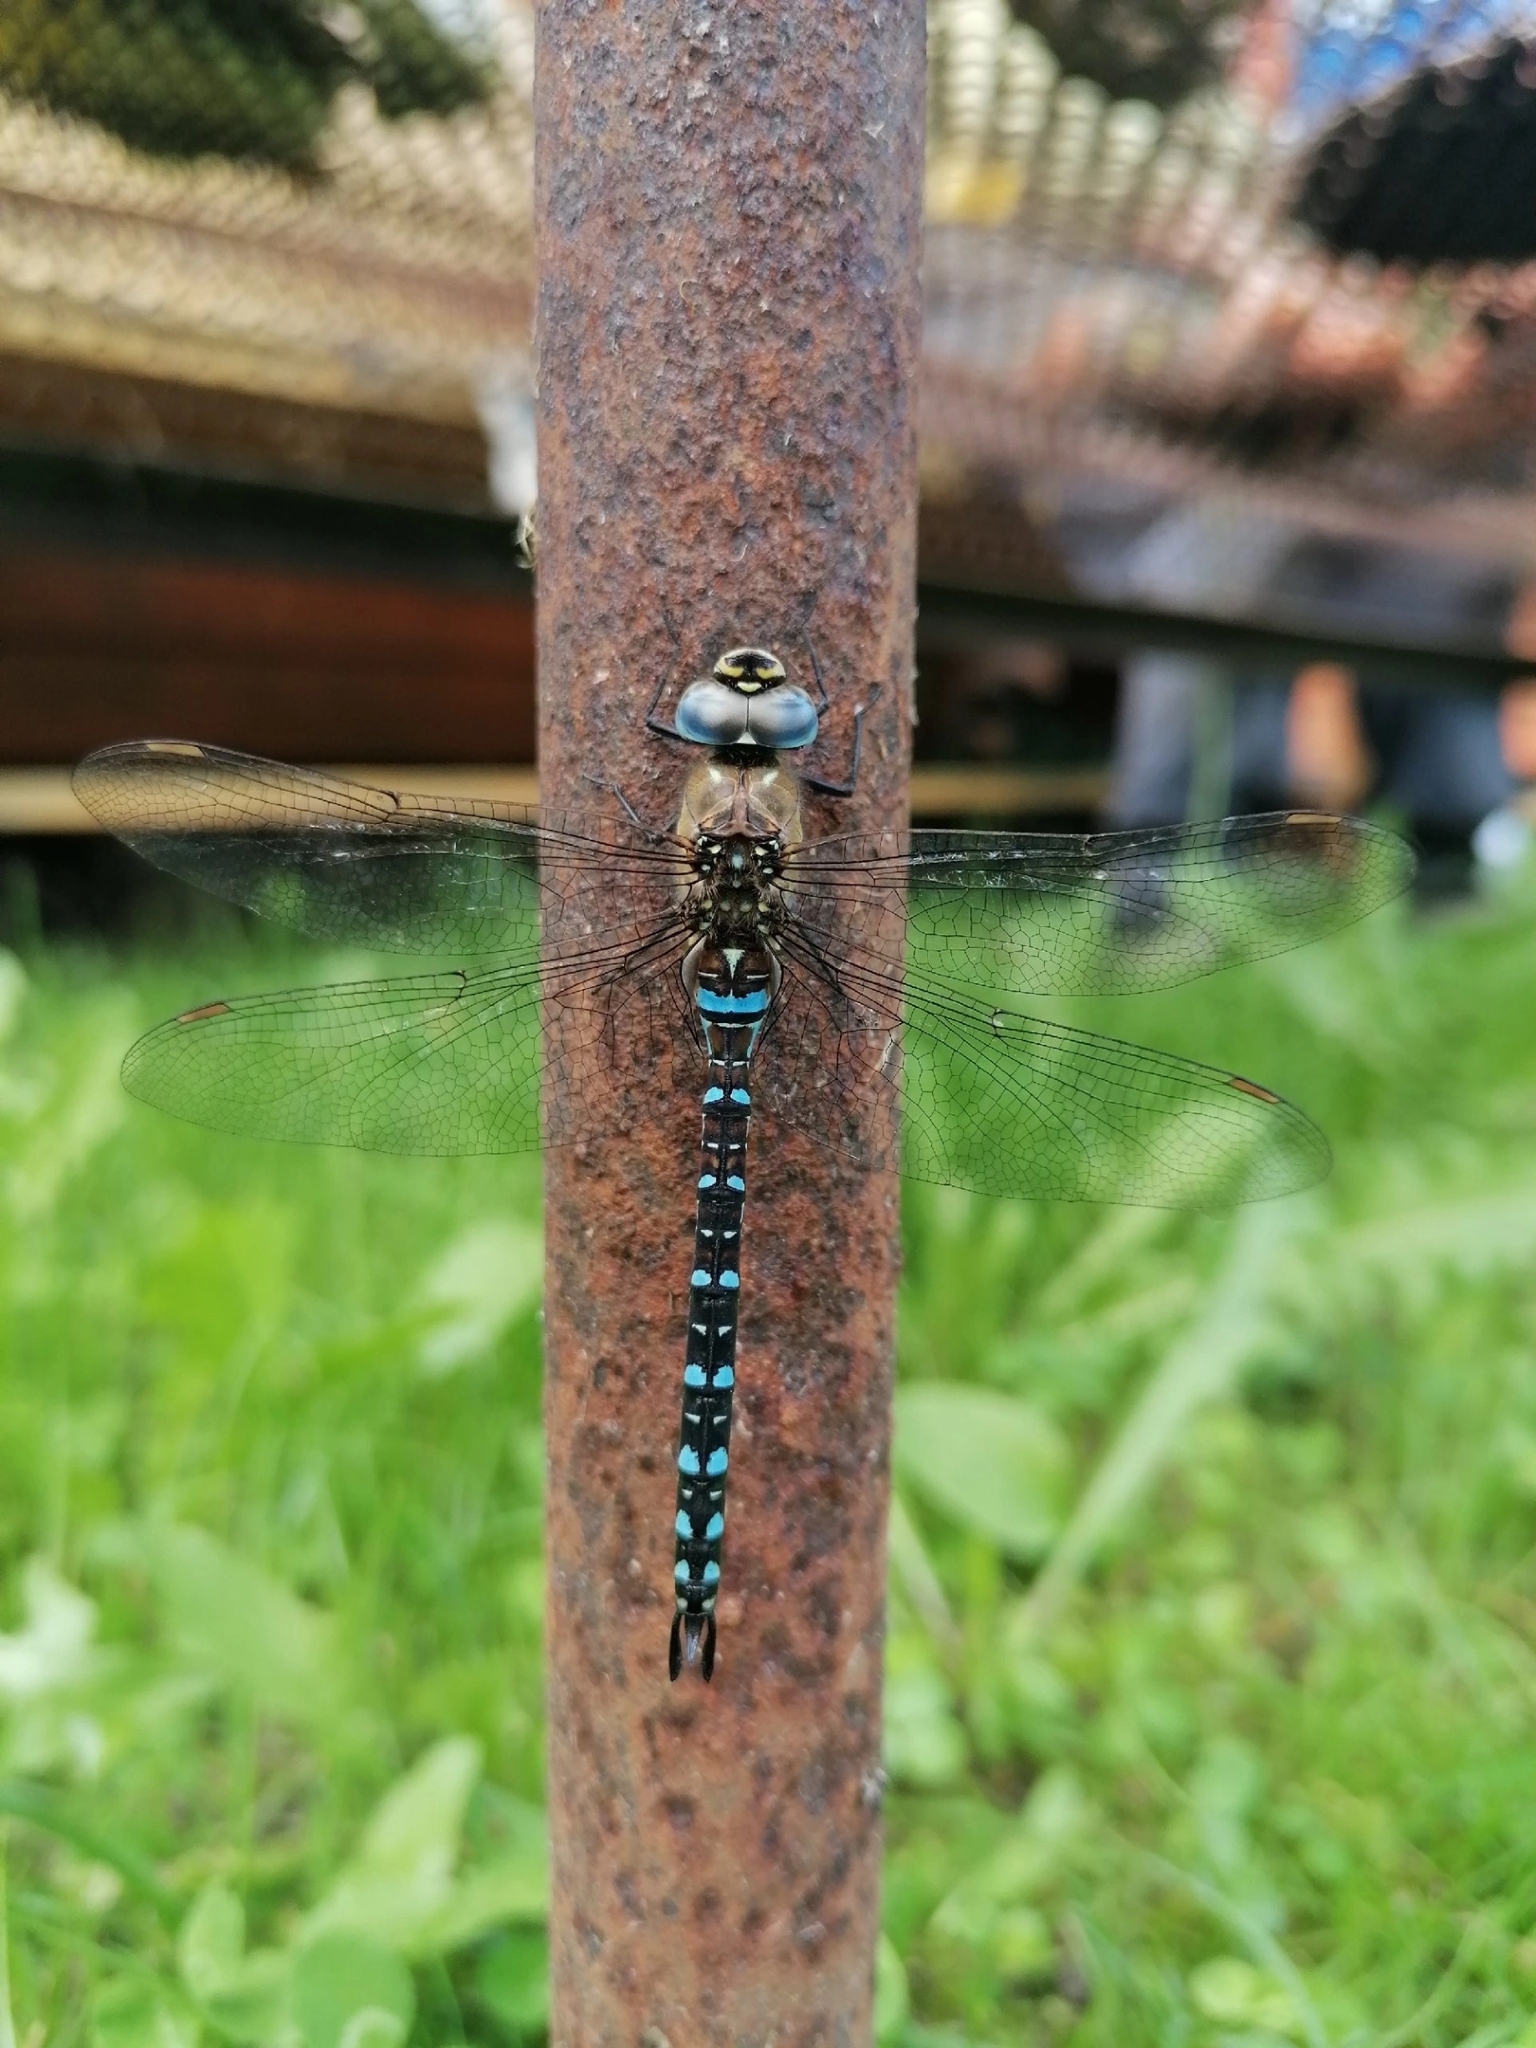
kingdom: Animalia
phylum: Arthropoda
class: Insecta
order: Odonata
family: Aeshnidae
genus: Aeshna
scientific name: Aeshna mixta
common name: Migrant hawker
